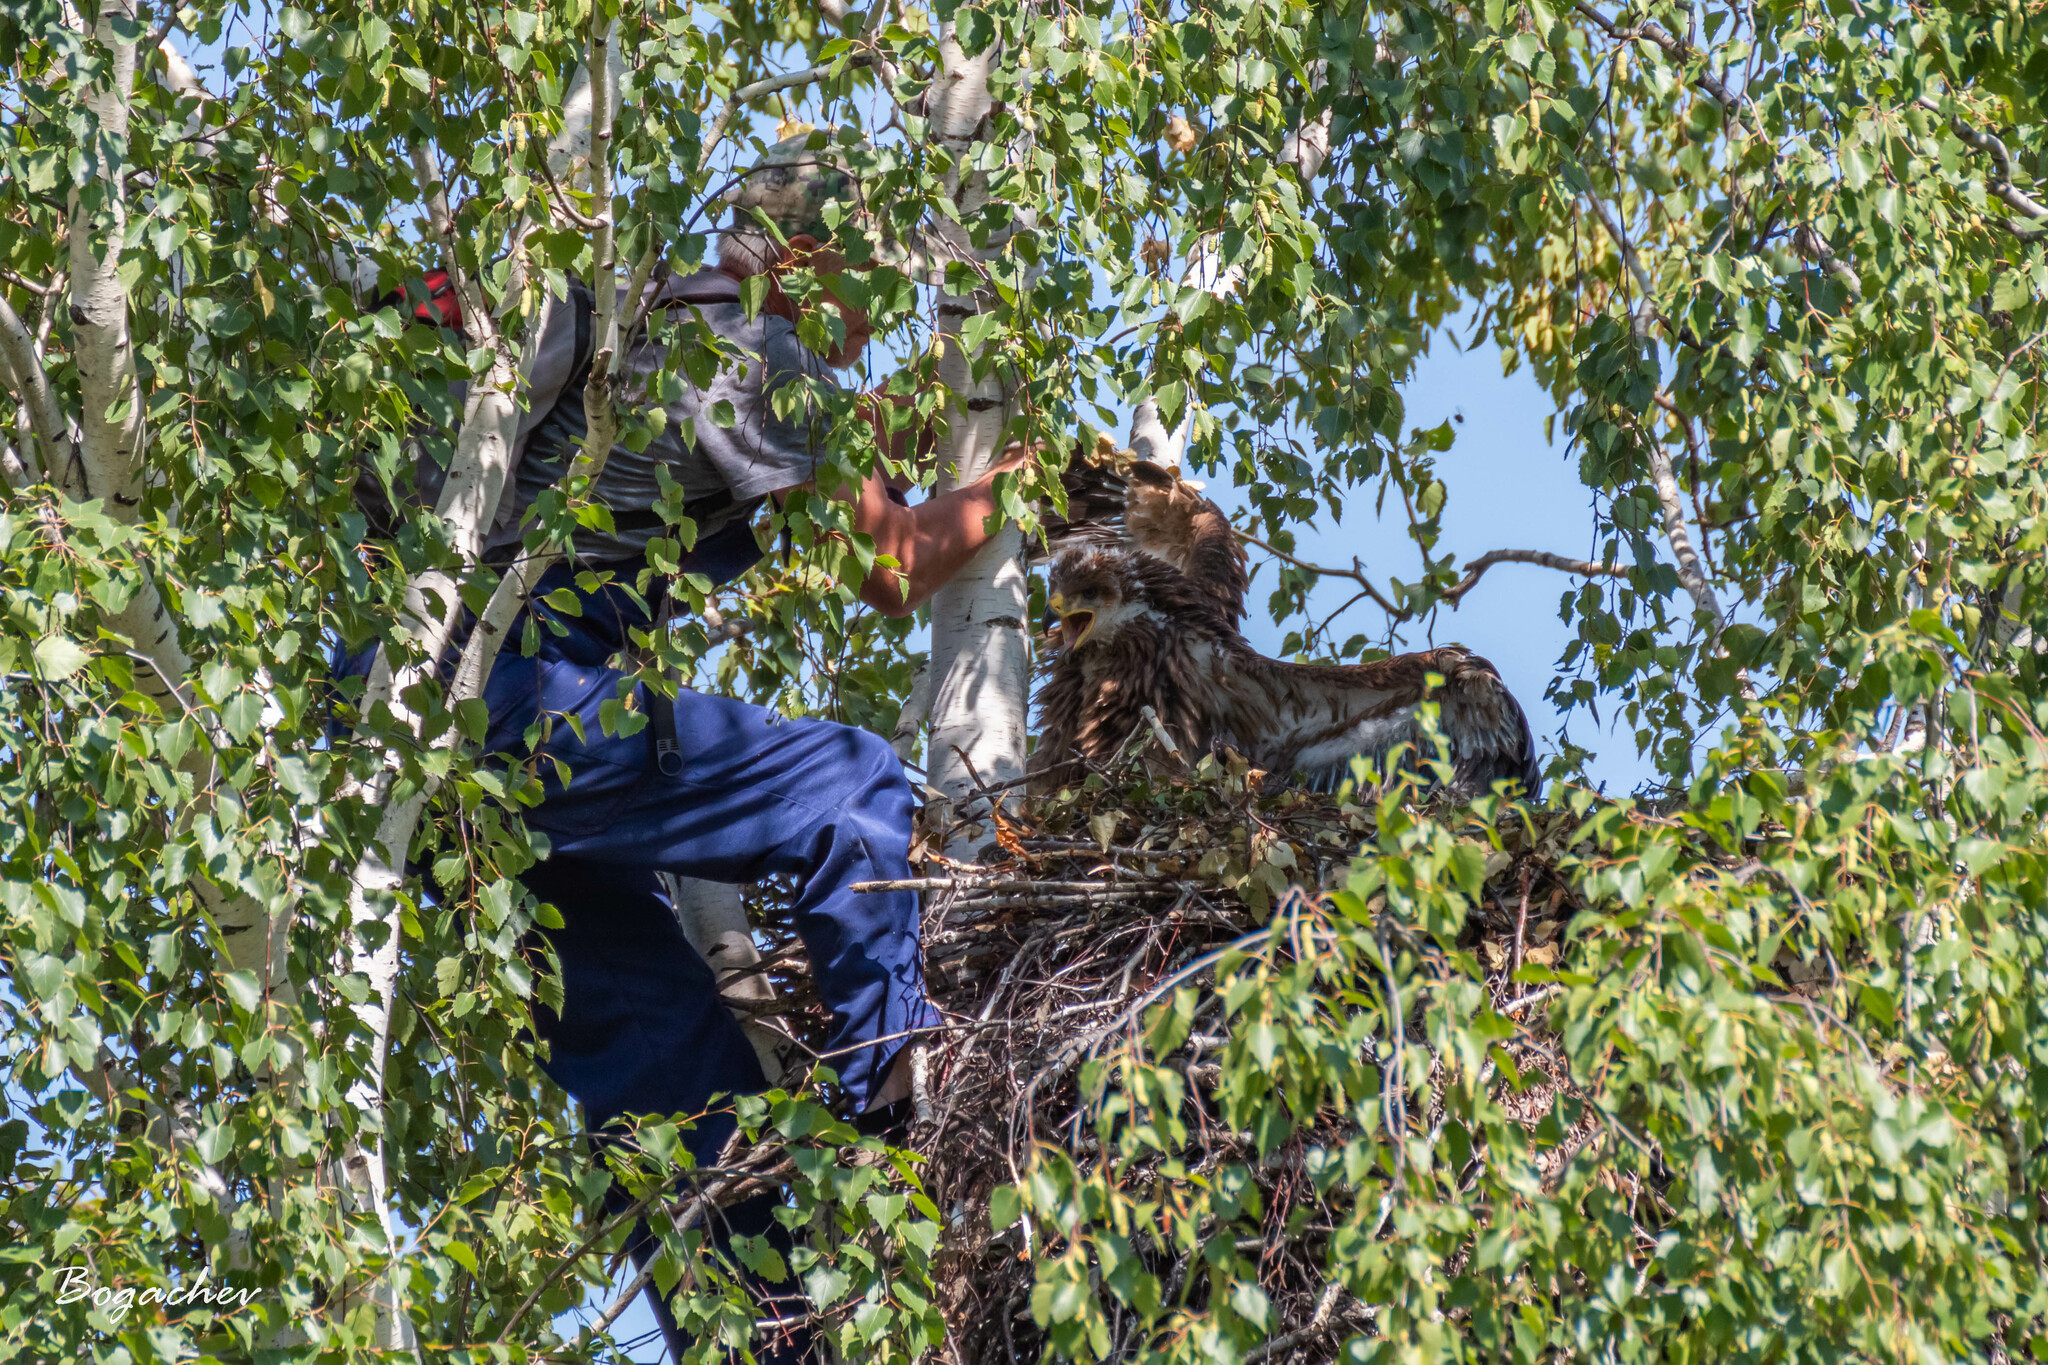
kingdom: Animalia
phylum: Chordata
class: Aves
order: Accipitriformes
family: Accipitridae
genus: Aquila
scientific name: Aquila heliaca
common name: Eastern imperial eagle
